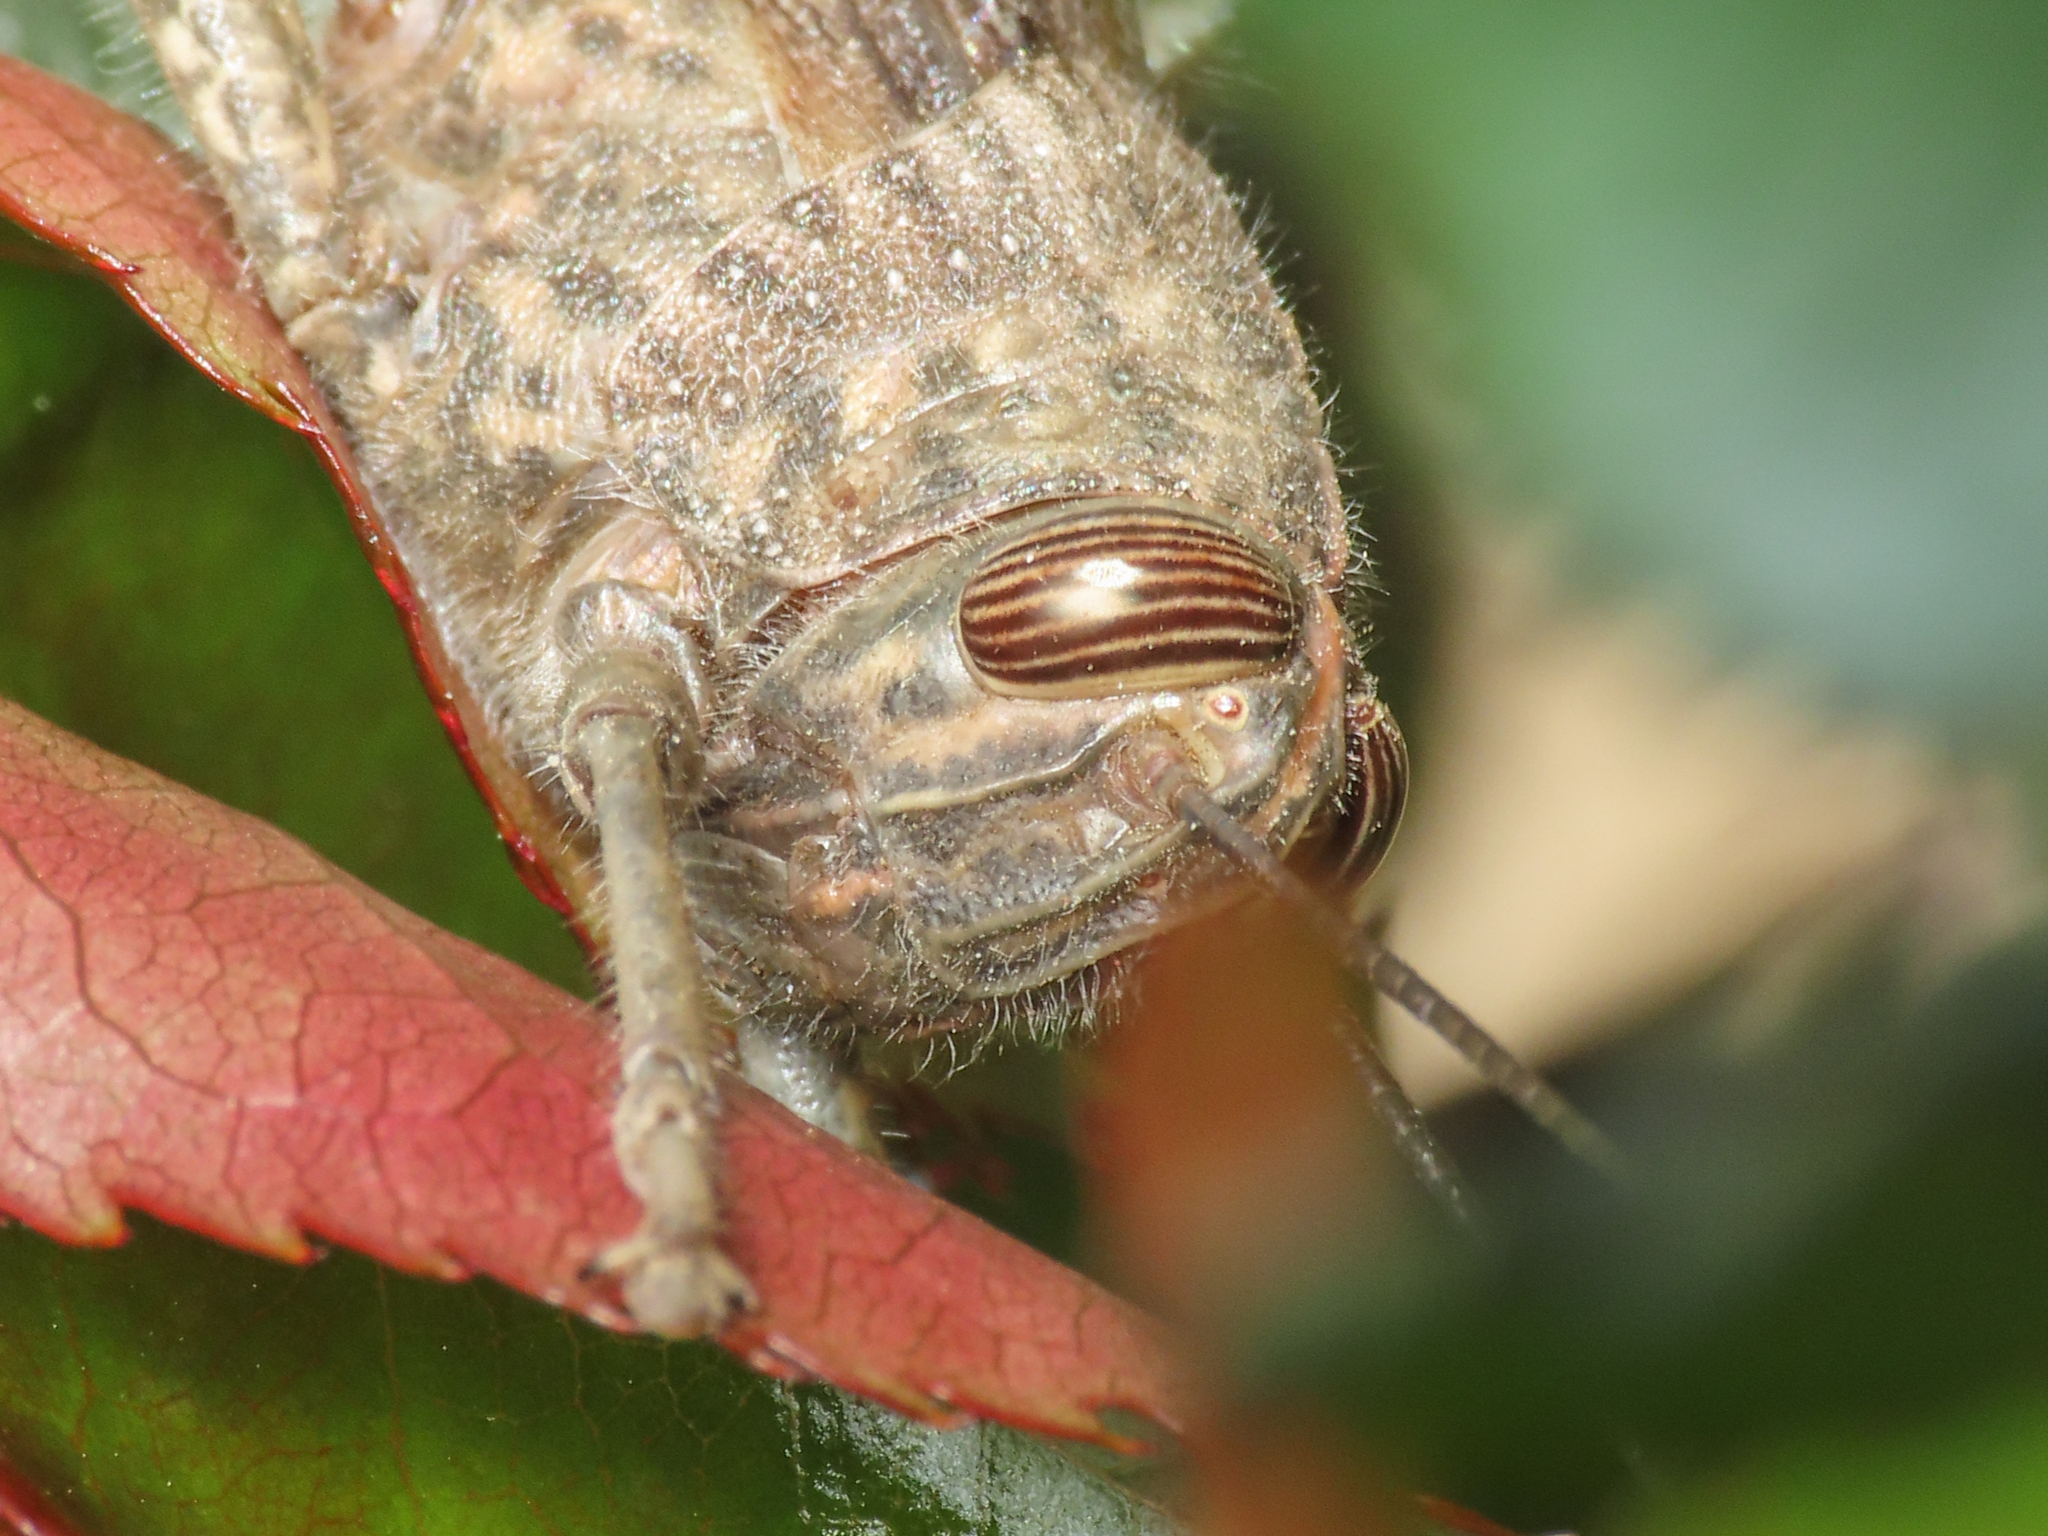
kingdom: Animalia
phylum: Arthropoda
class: Insecta
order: Orthoptera
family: Acrididae
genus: Anacridium
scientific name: Anacridium aegyptium
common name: Egyptian grasshopper
